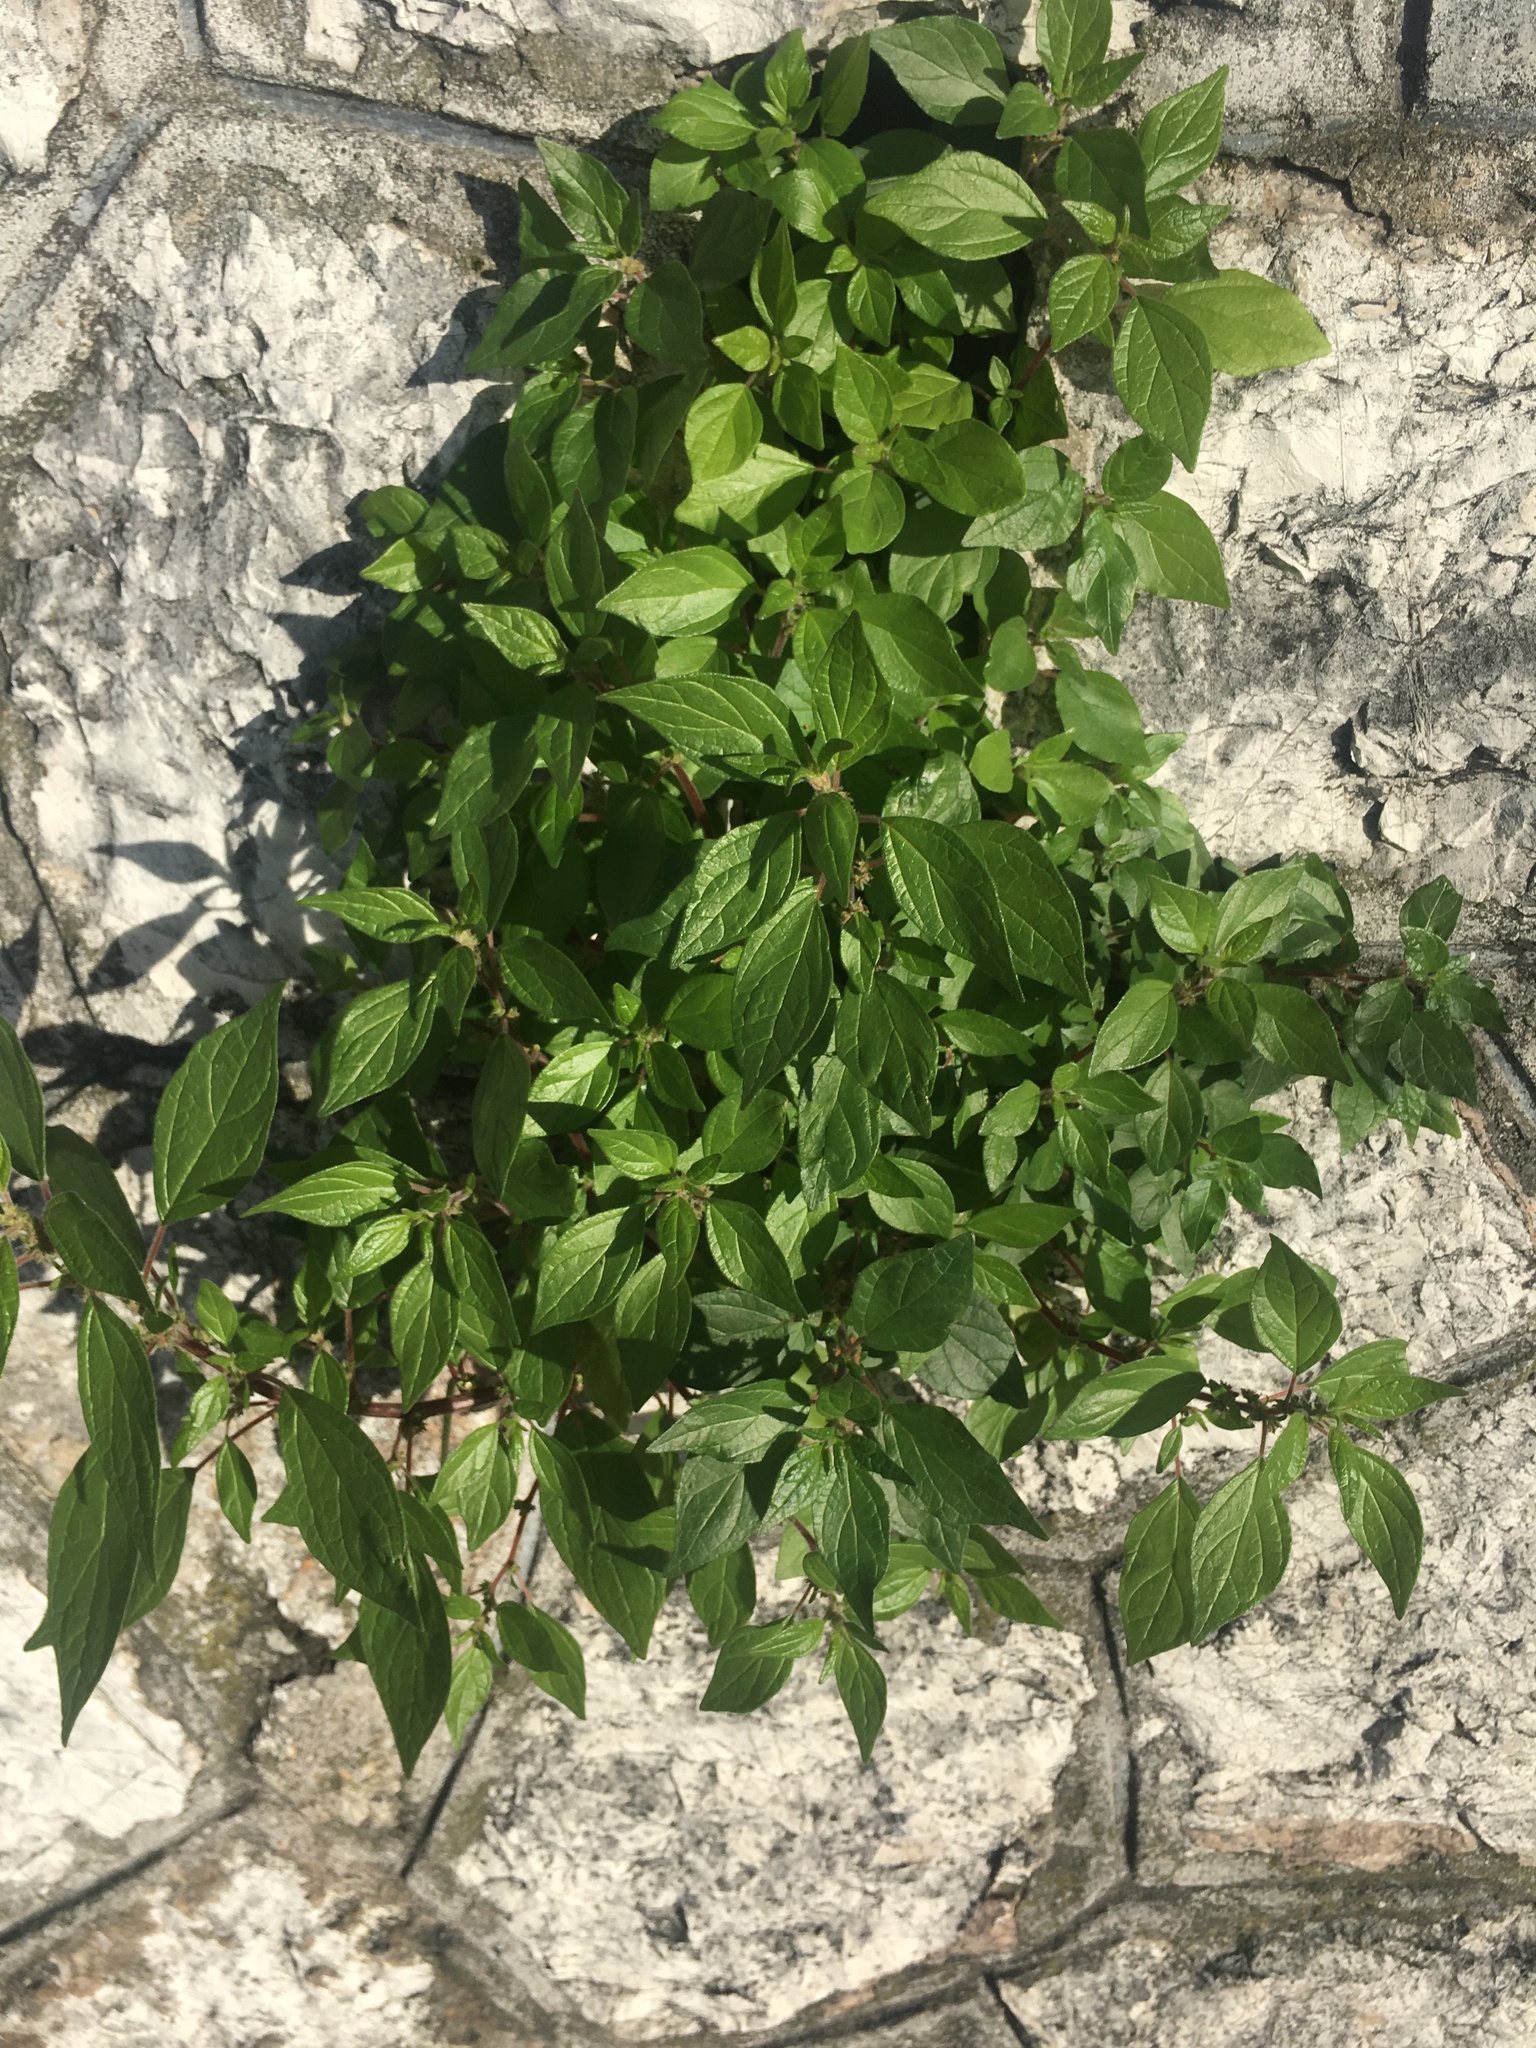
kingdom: Plantae
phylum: Tracheophyta
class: Magnoliopsida
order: Rosales
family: Urticaceae
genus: Parietaria
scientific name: Parietaria judaica
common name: Pellitory-of-the-wall
